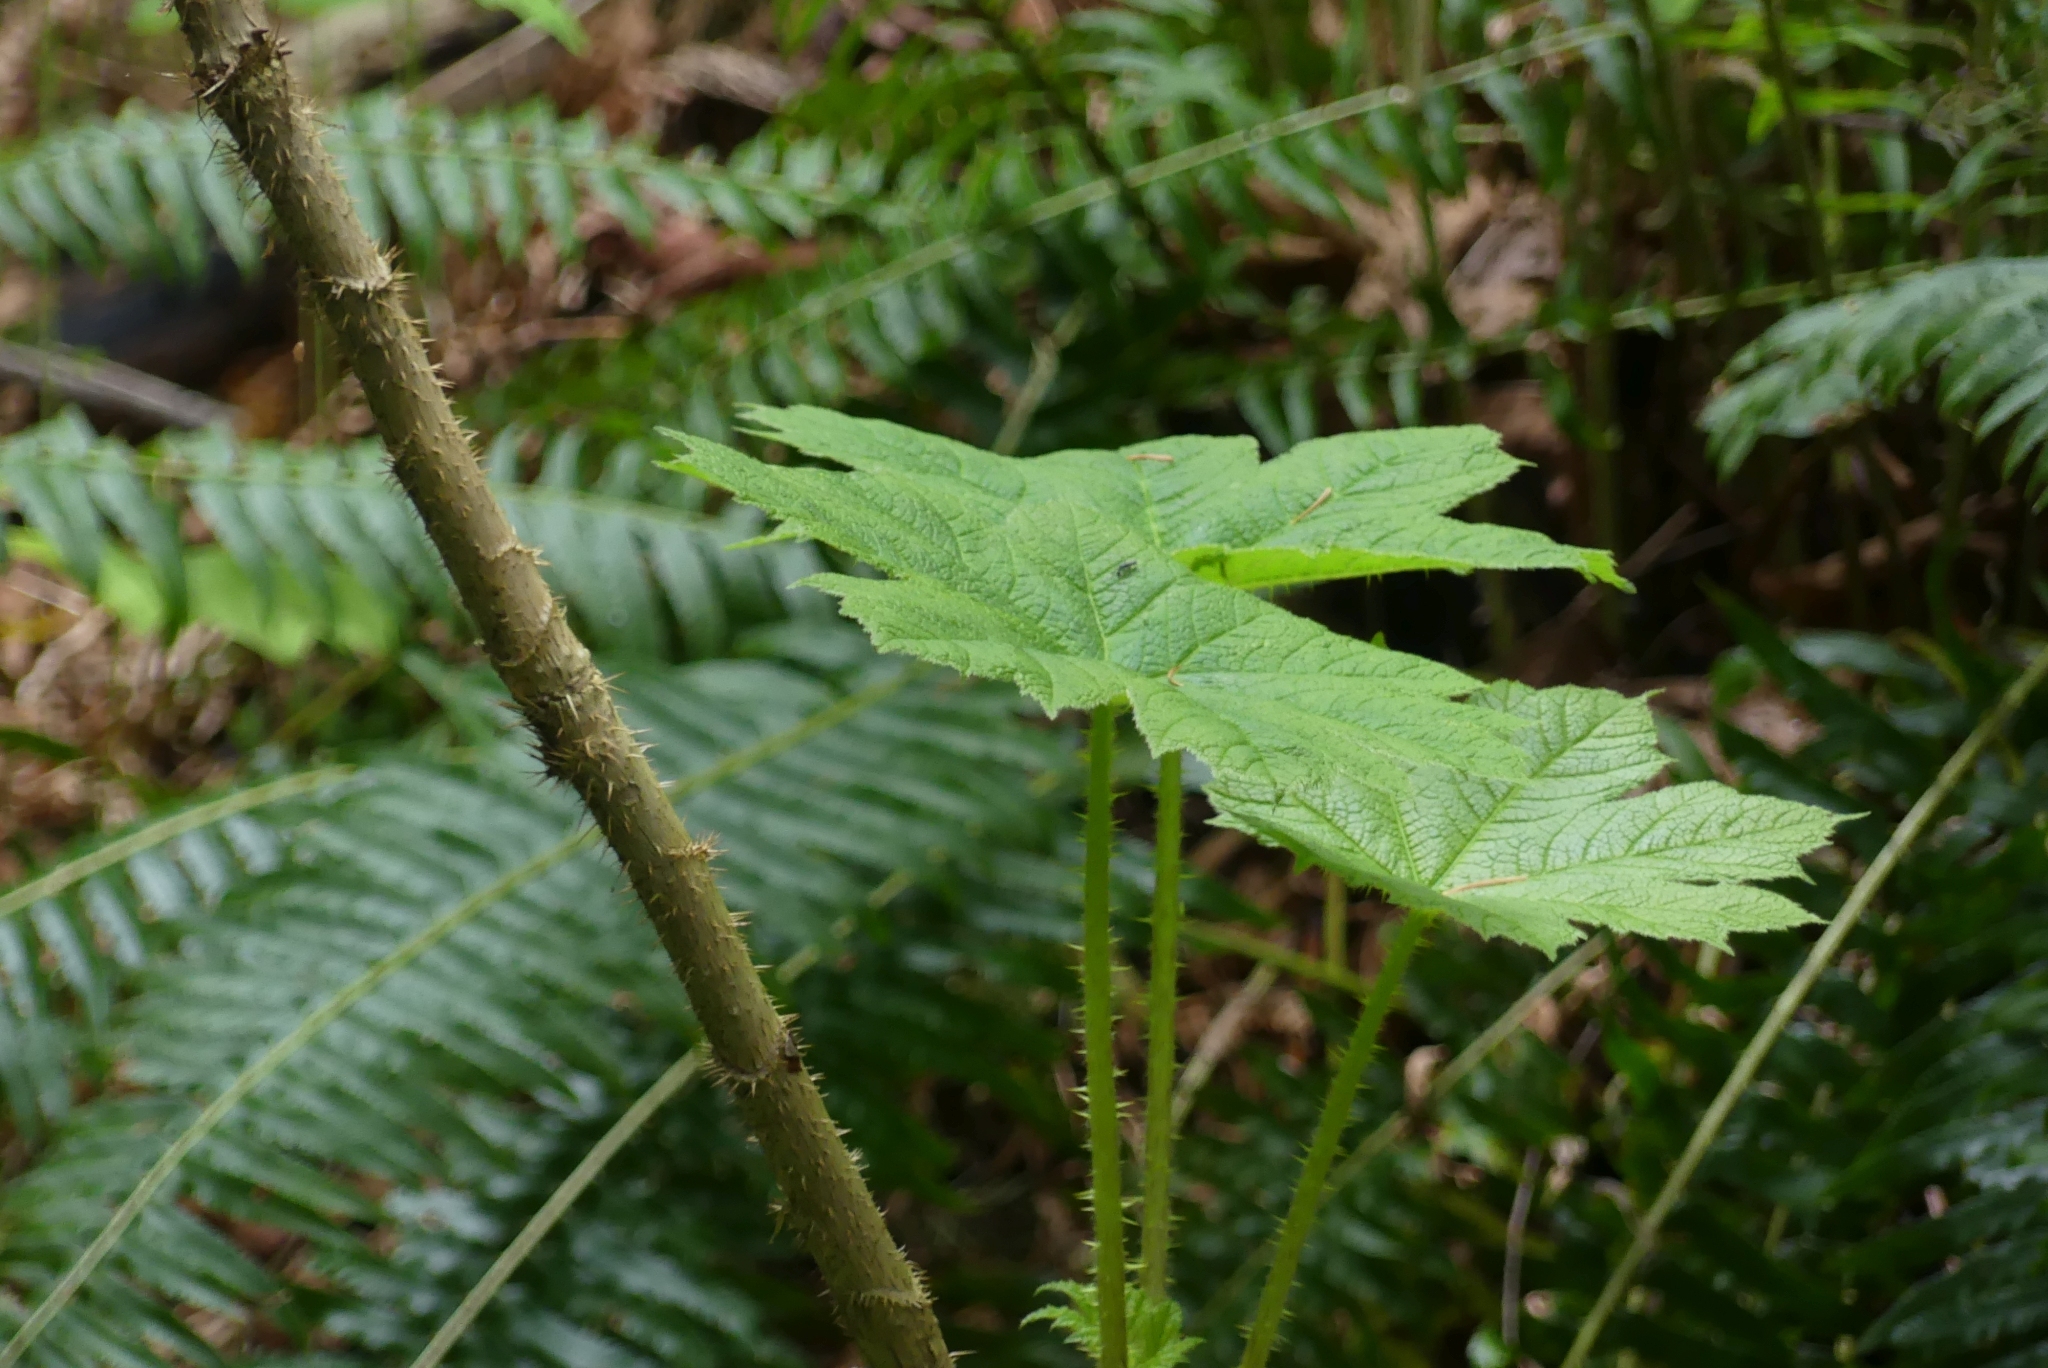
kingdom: Plantae
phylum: Tracheophyta
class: Magnoliopsida
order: Apiales
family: Araliaceae
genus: Oplopanax
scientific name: Oplopanax horridus
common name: Devil's walking-stick
